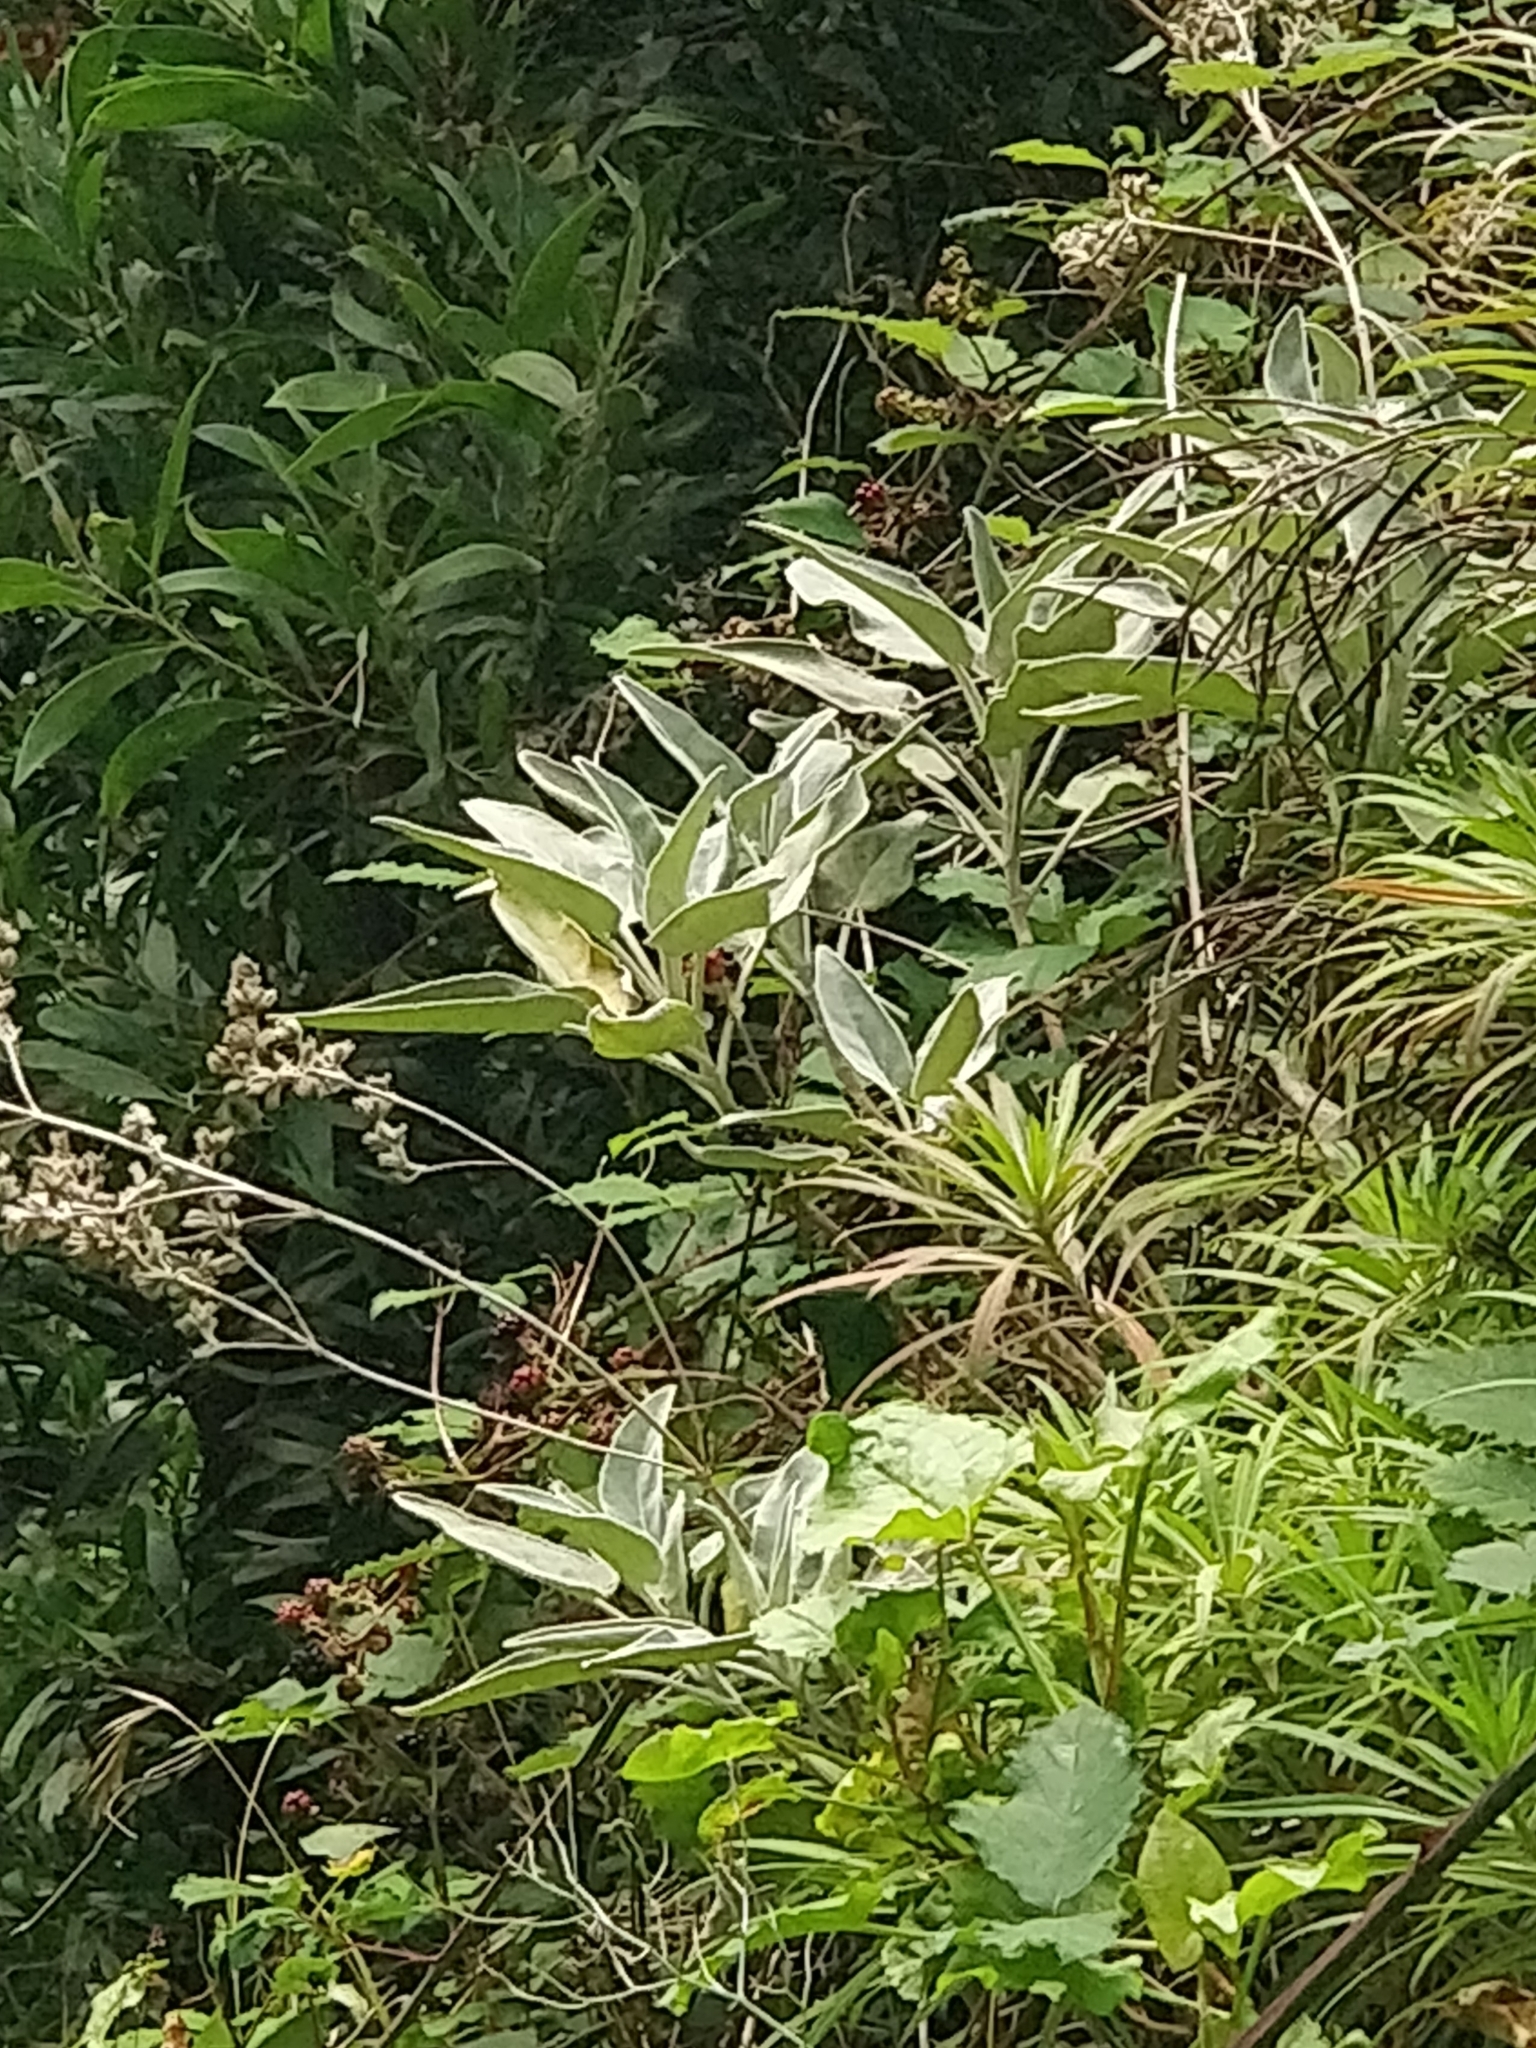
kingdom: Plantae
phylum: Tracheophyta
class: Magnoliopsida
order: Lamiales
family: Lamiaceae
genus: Sideritis
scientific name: Sideritis candicans
